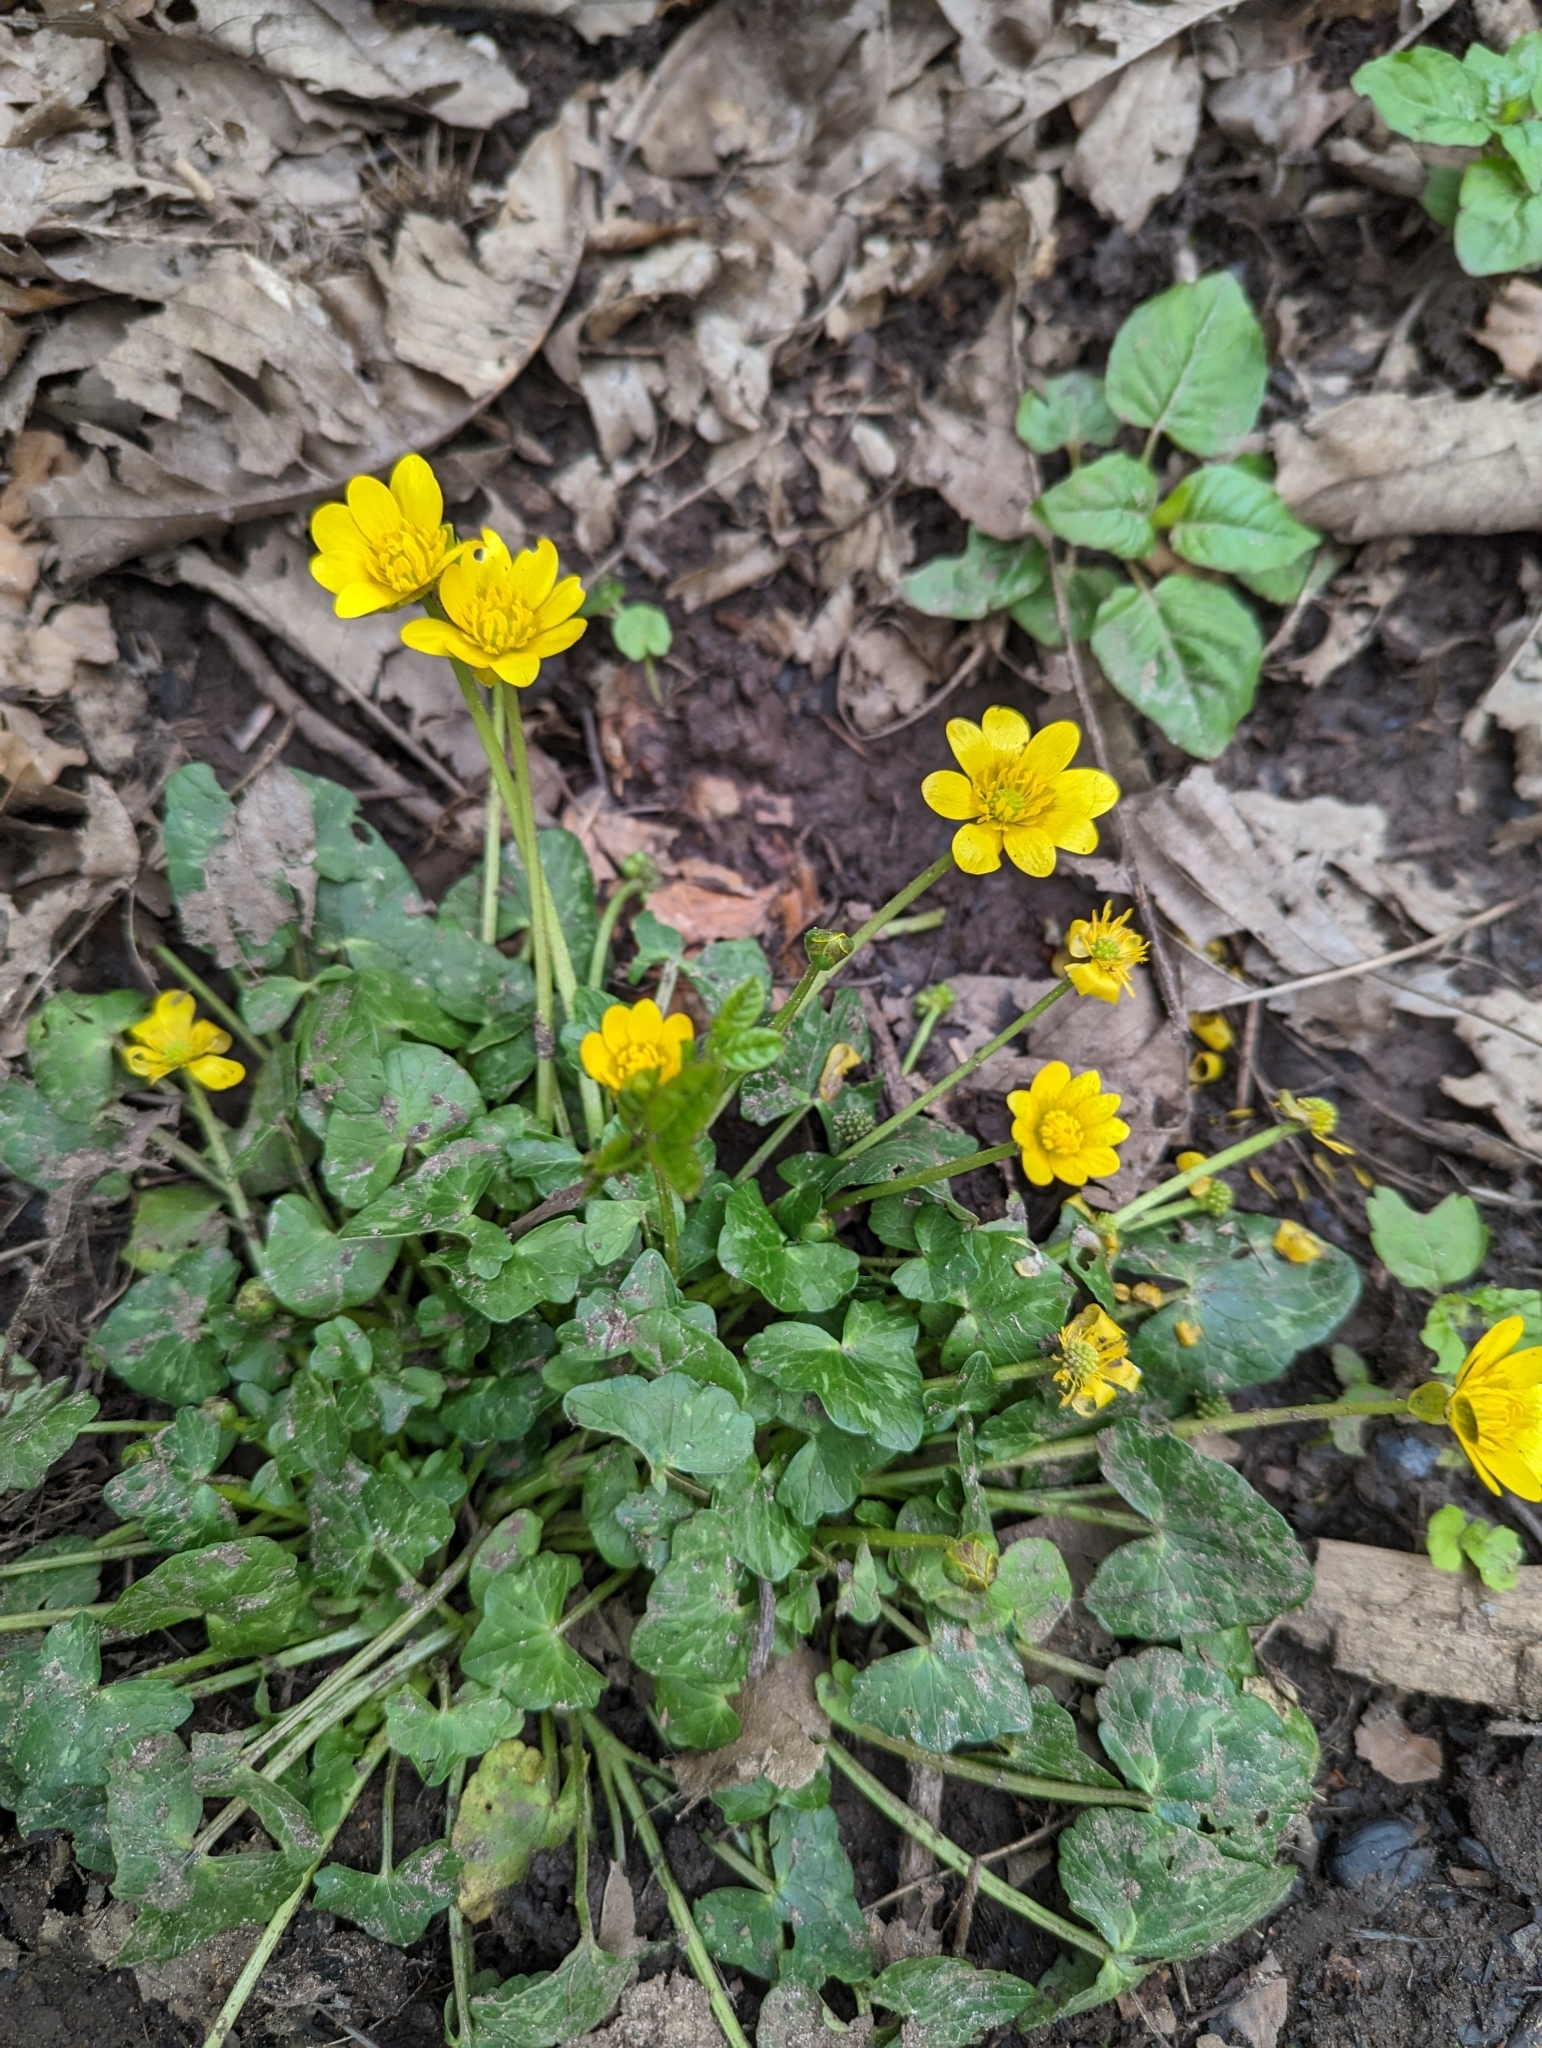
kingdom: Plantae
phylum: Tracheophyta
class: Magnoliopsida
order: Ranunculales
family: Ranunculaceae
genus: Ficaria
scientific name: Ficaria verna
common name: Lesser celandine
